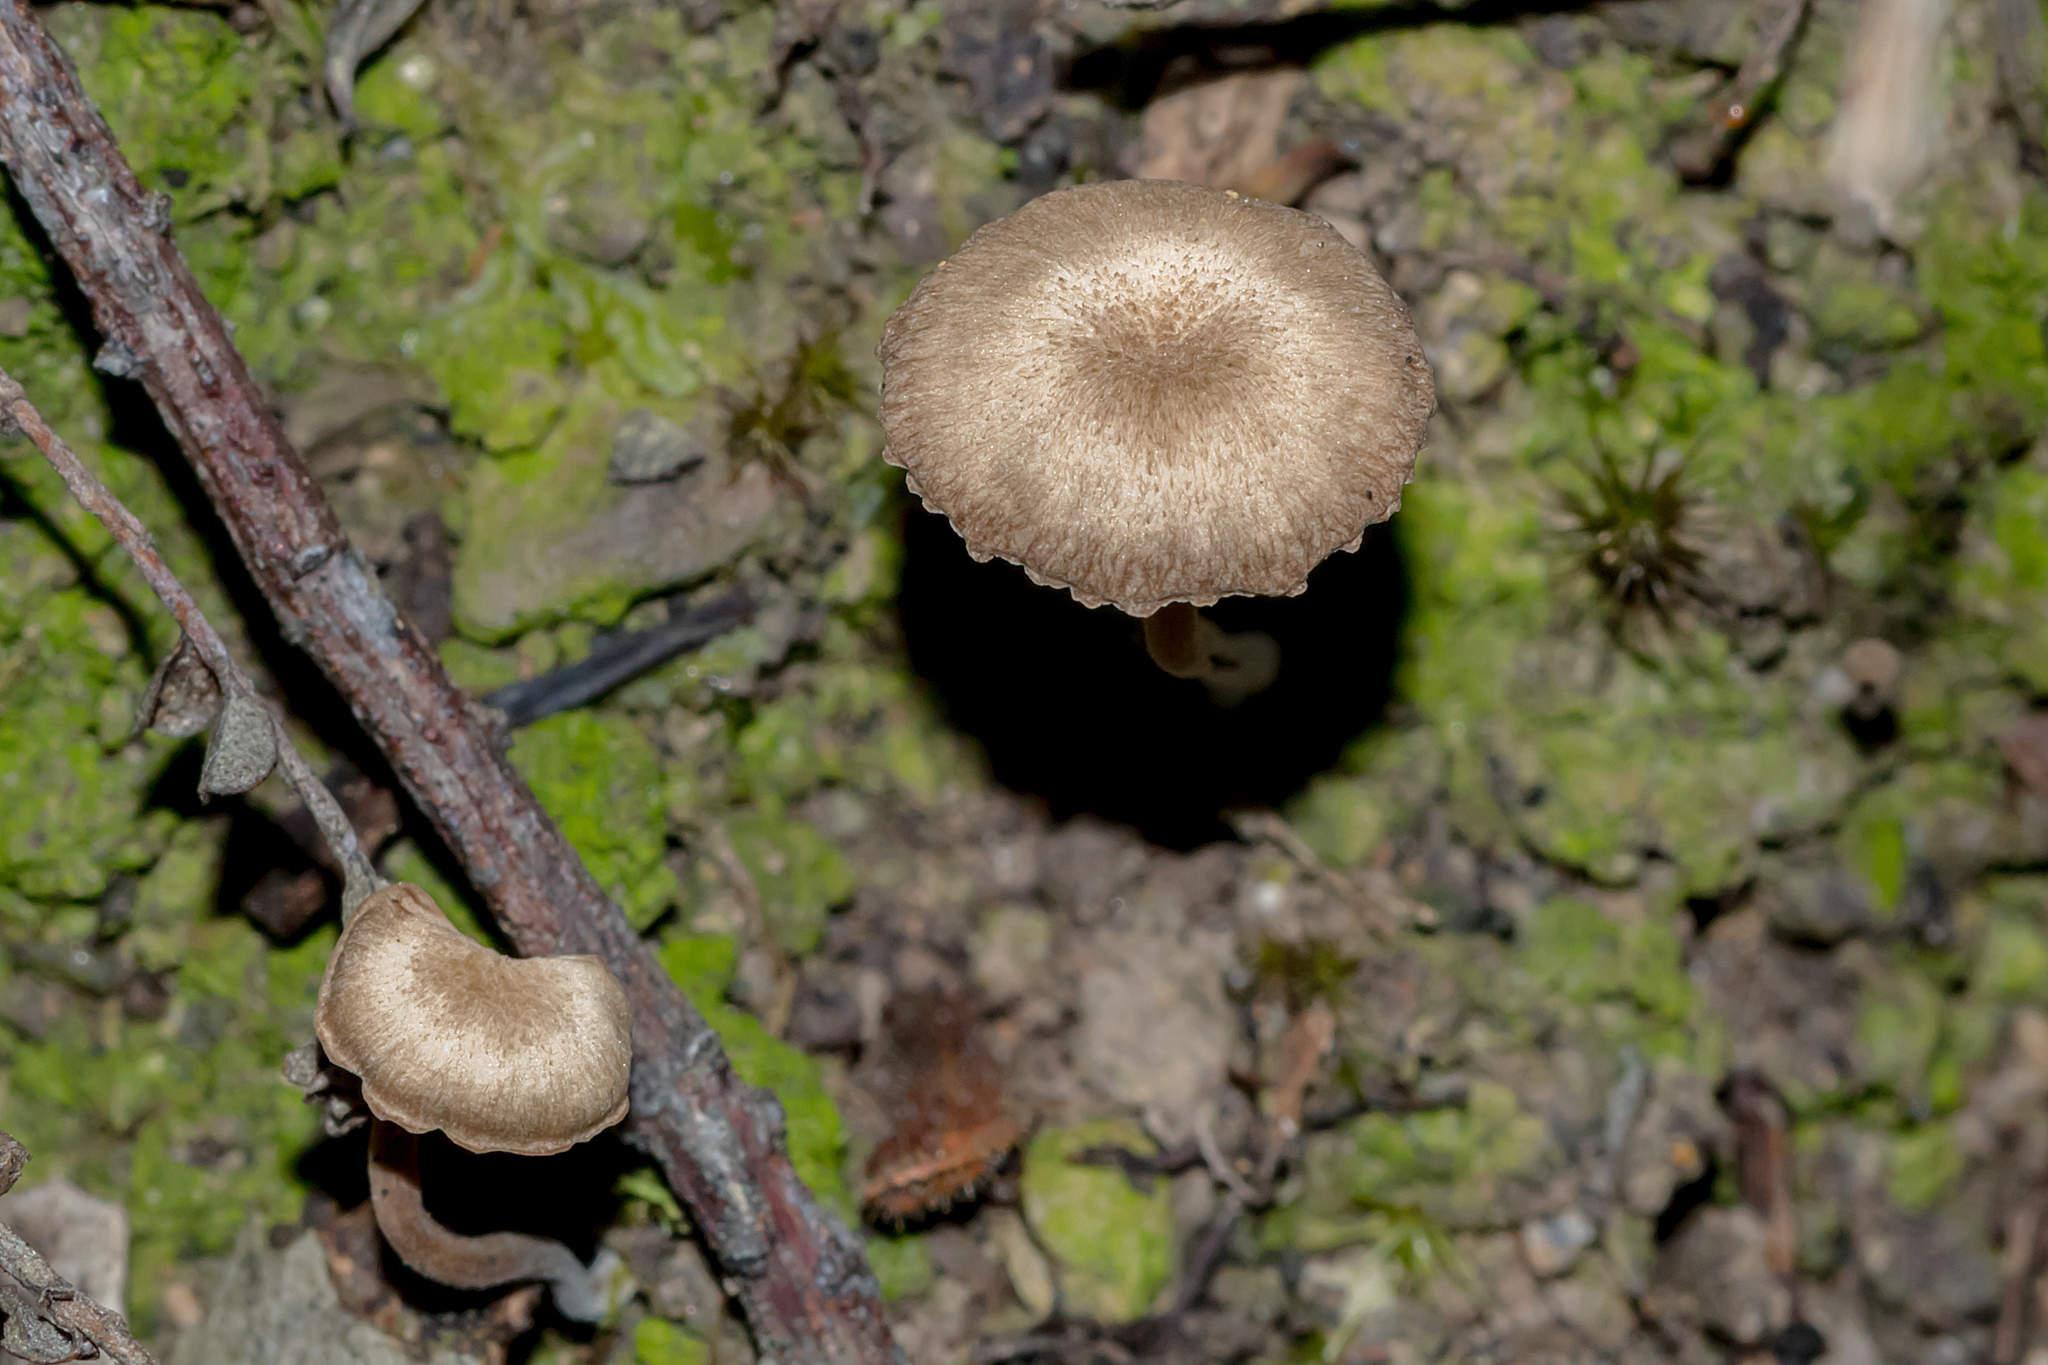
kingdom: Fungi
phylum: Basidiomycota
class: Agaricomycetes
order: Agaricales
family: Hygrophoraceae
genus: Lichenomphalia
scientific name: Lichenomphalia
